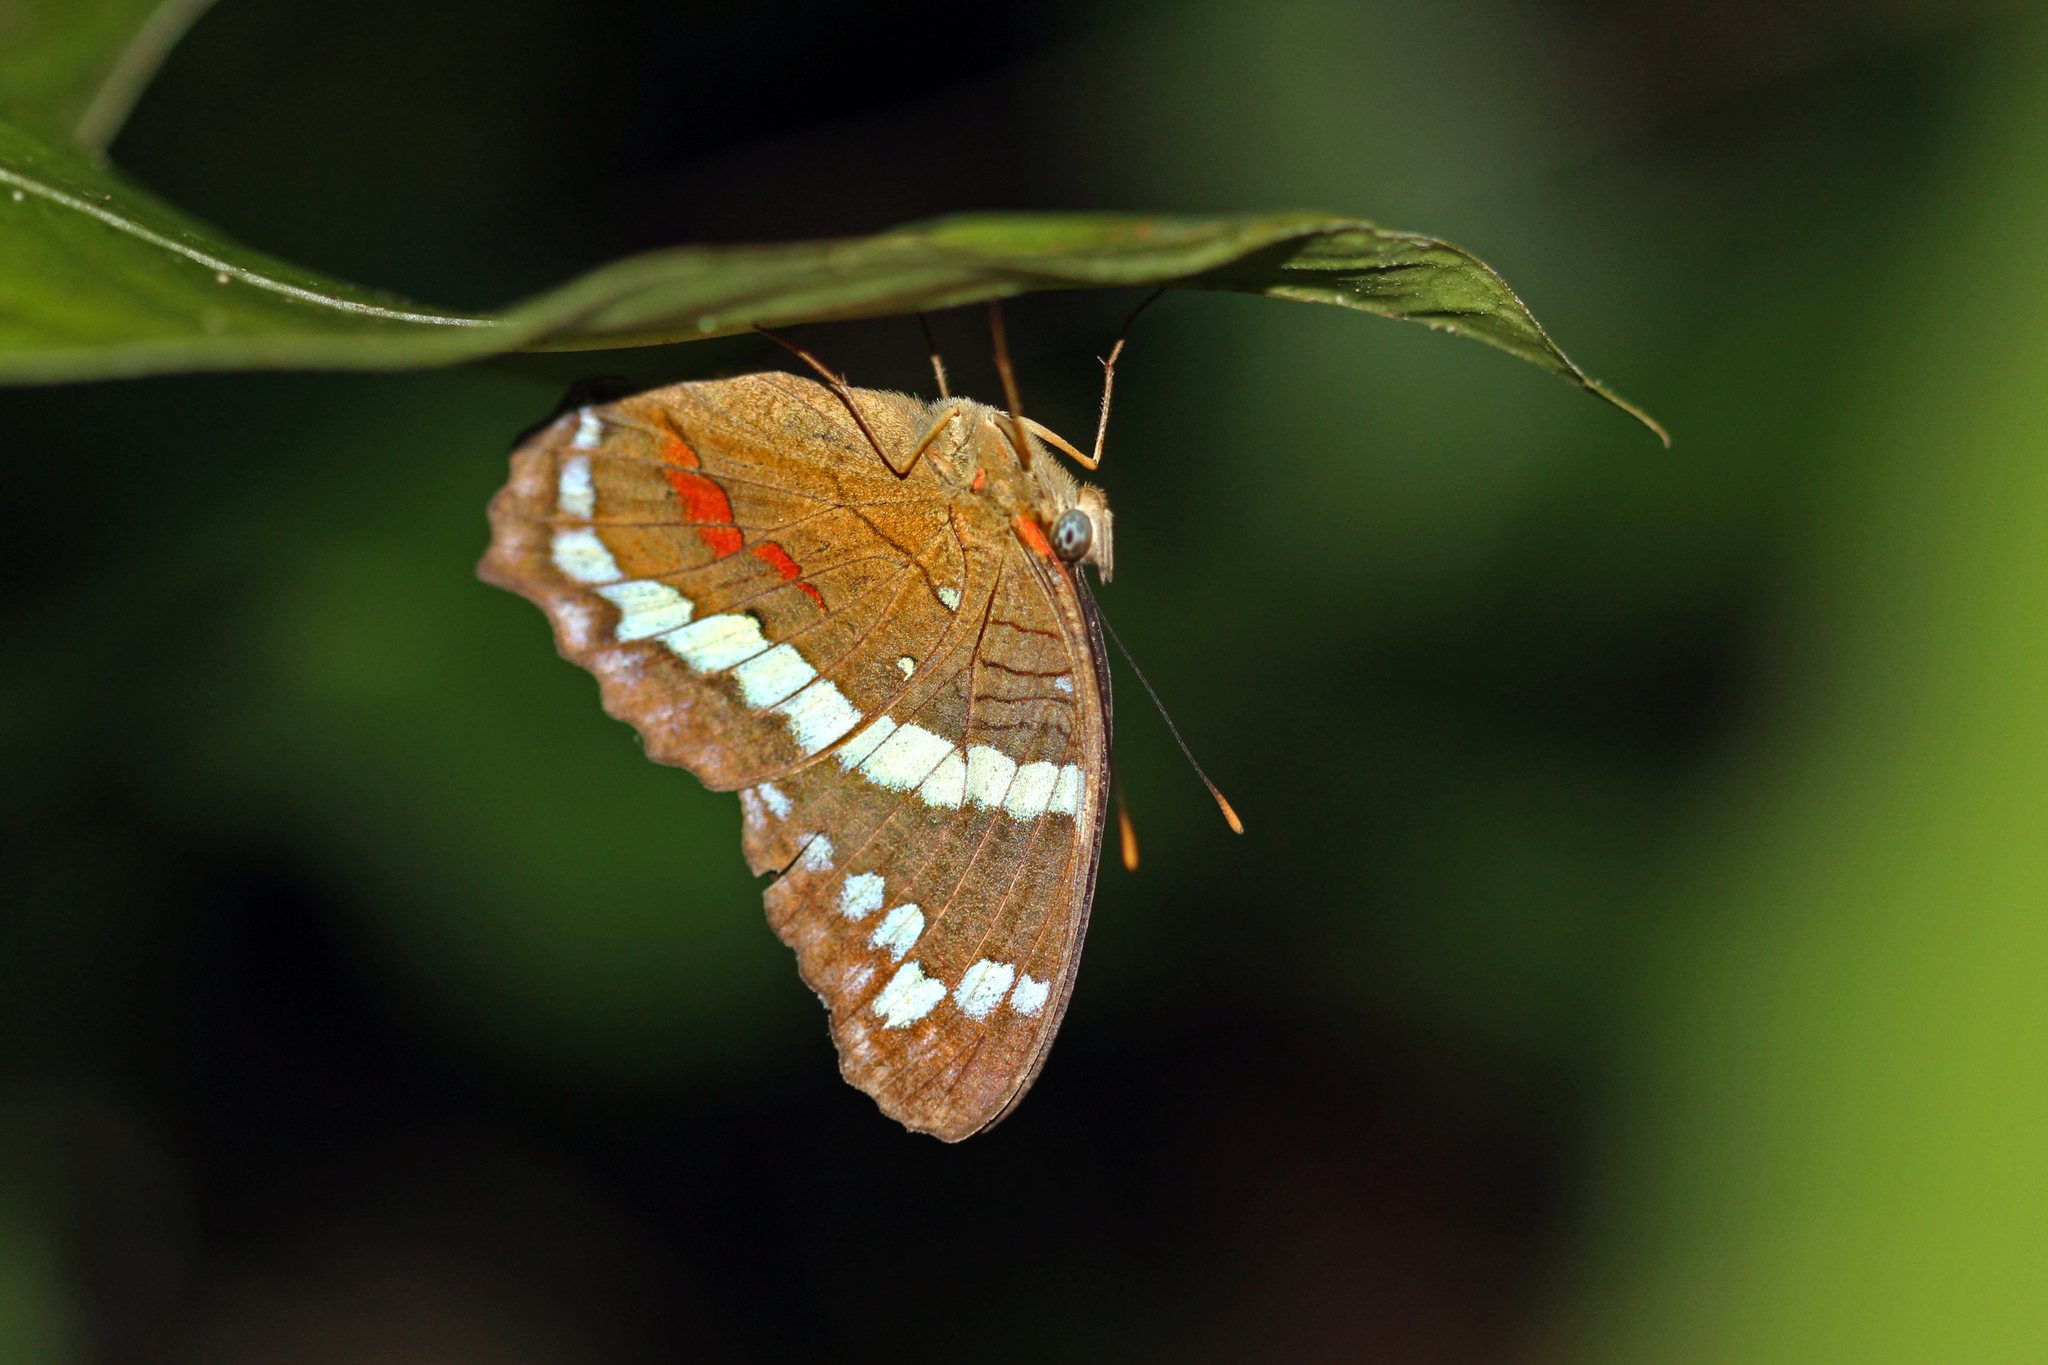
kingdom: Animalia
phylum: Arthropoda
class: Insecta
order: Lepidoptera
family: Nymphalidae
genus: Anartia
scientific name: Anartia fatima
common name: Banded peacock
